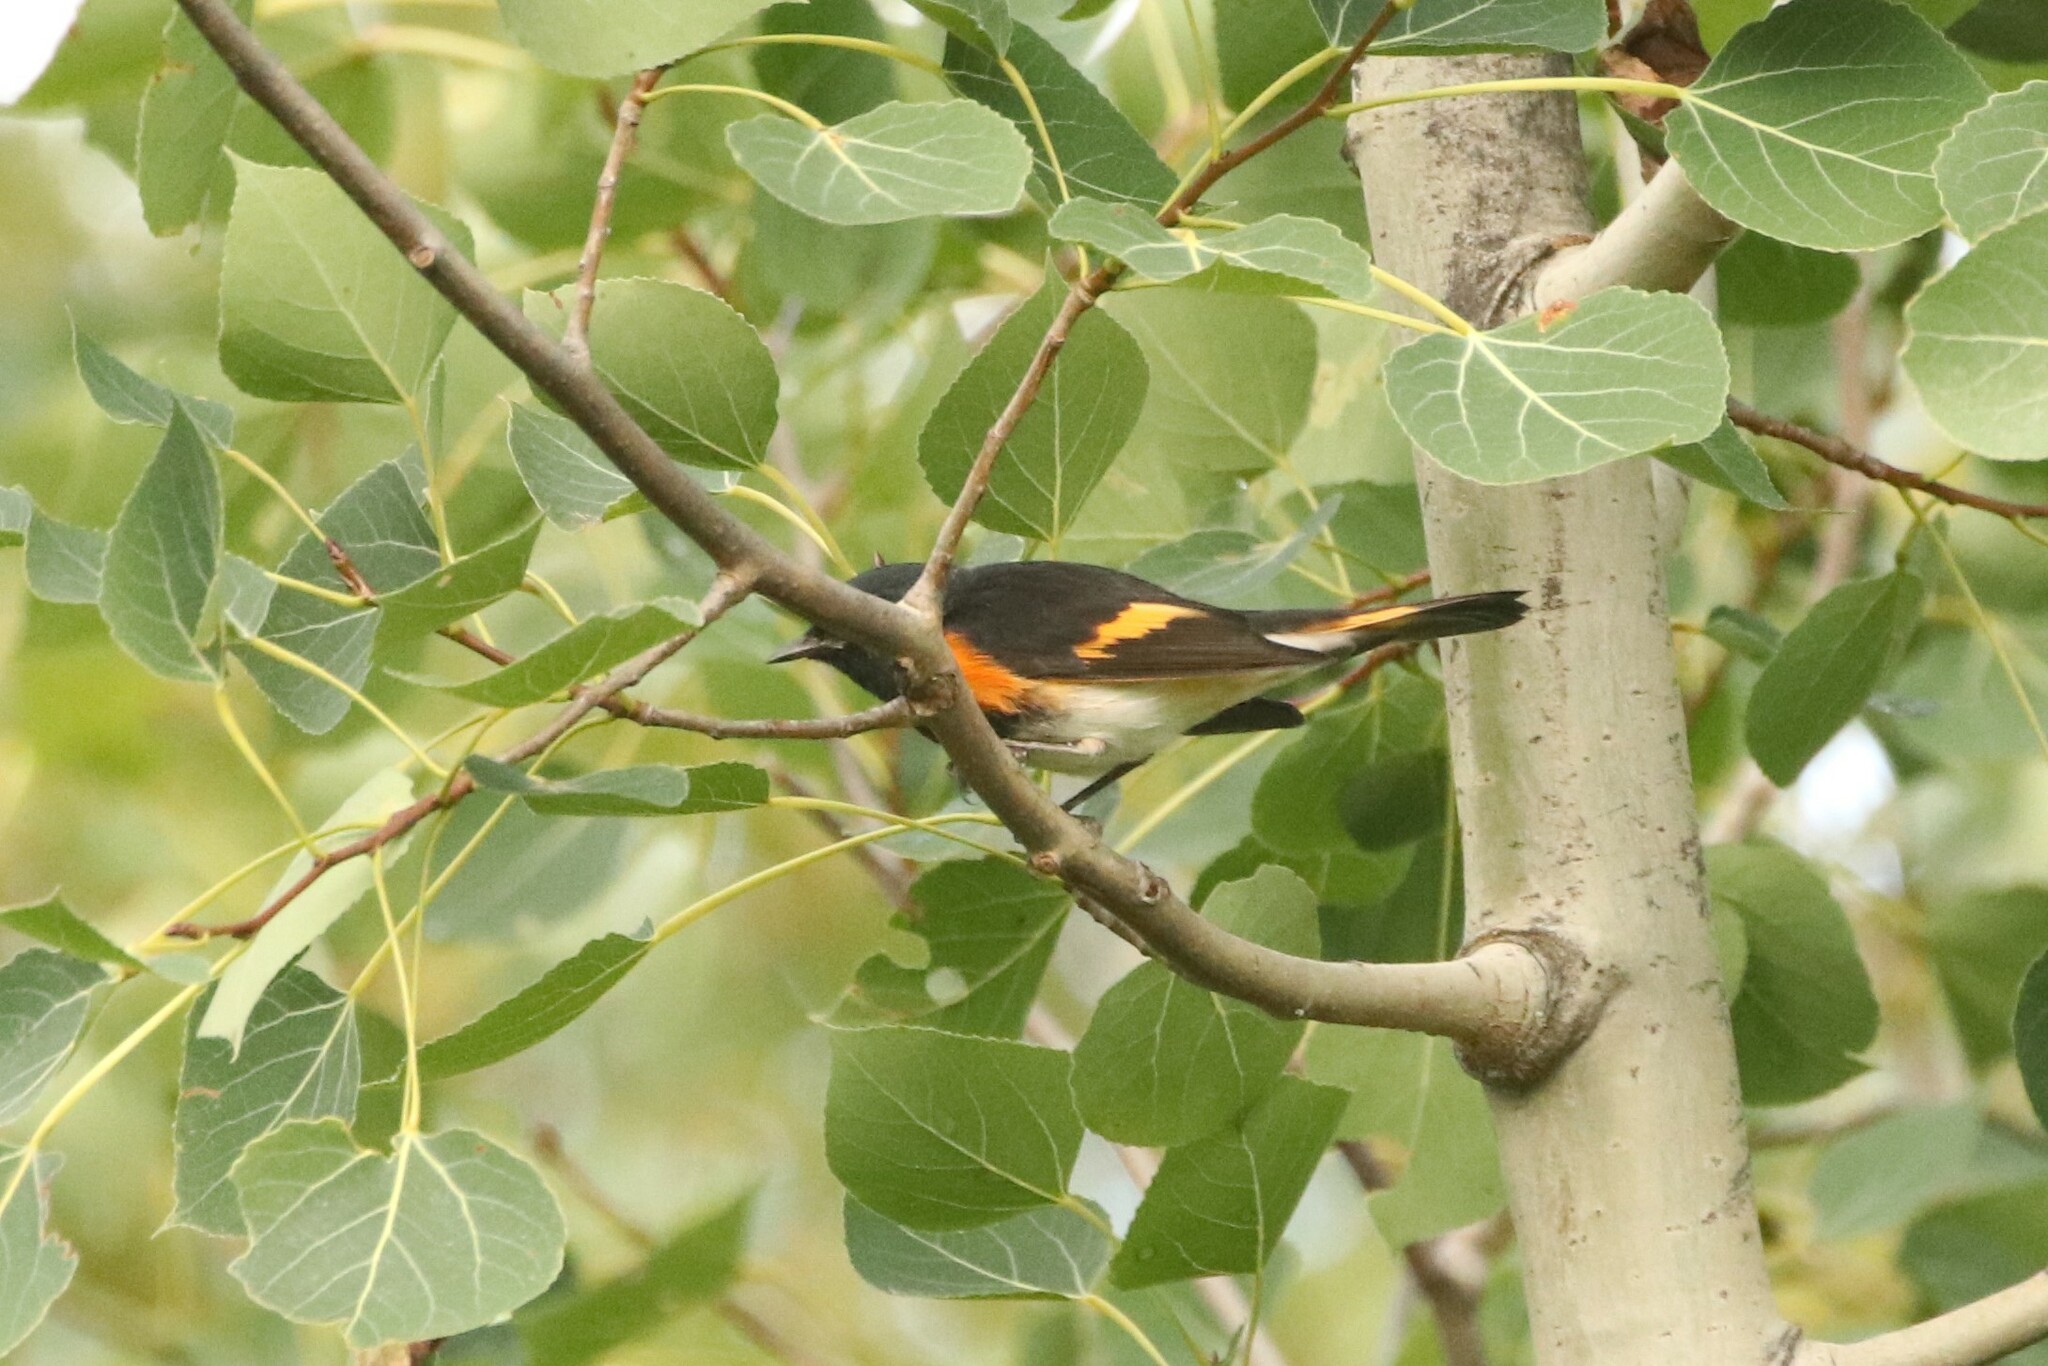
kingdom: Animalia
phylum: Chordata
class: Aves
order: Passeriformes
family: Parulidae
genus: Setophaga
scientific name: Setophaga ruticilla
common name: American redstart
